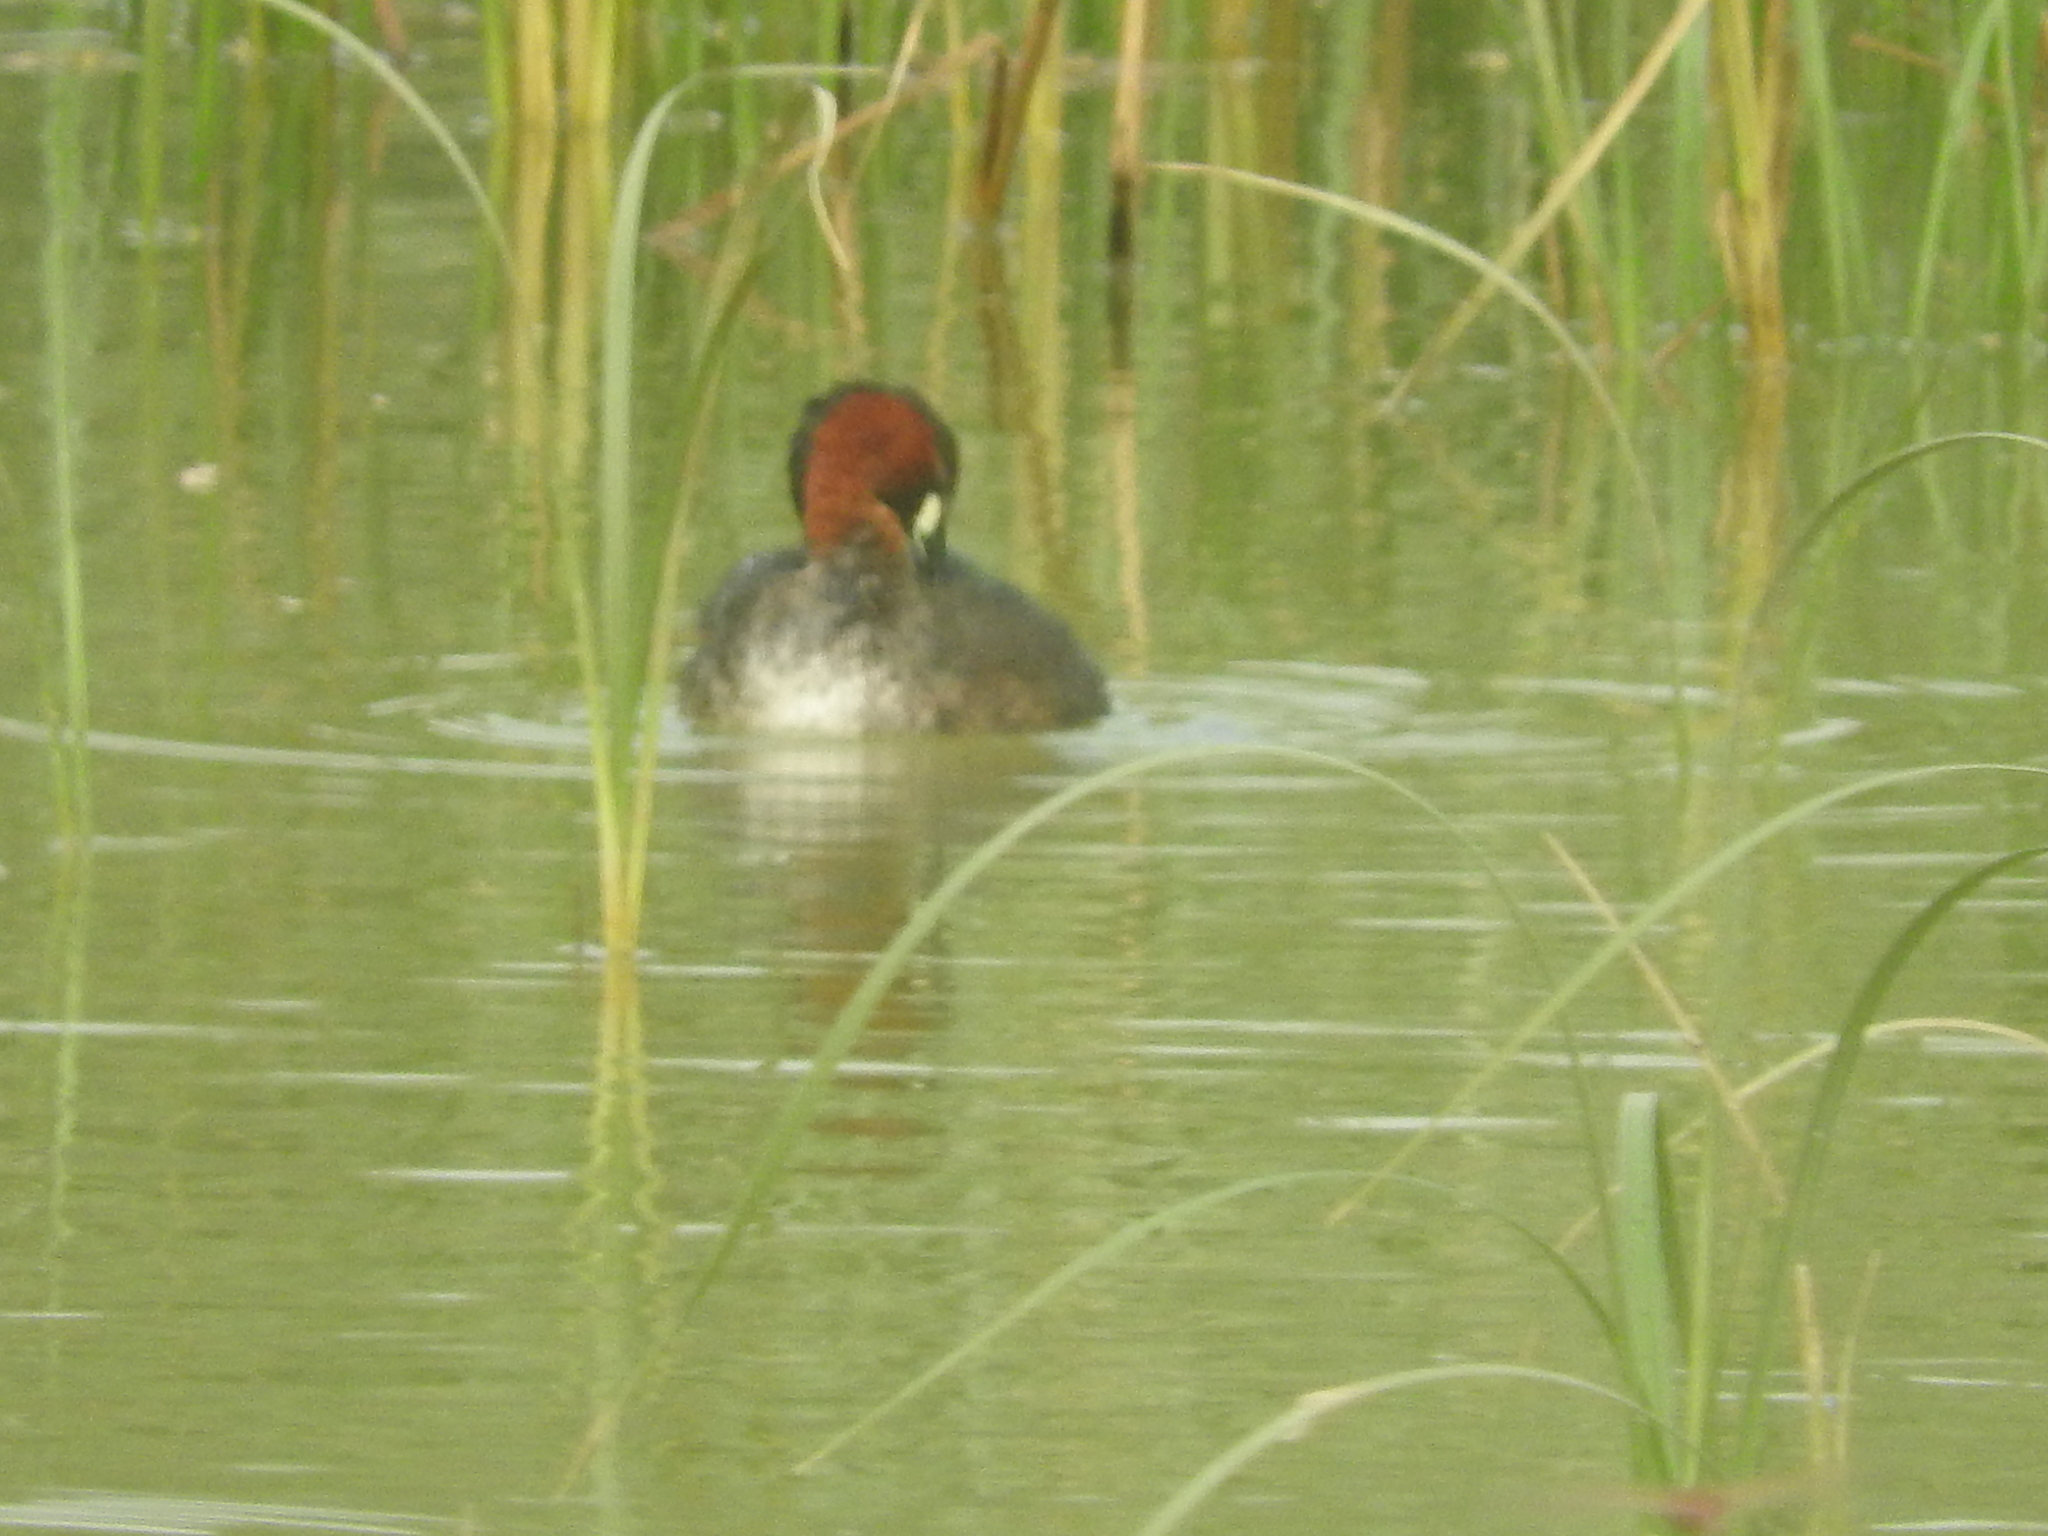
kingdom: Animalia
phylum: Chordata
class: Aves
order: Podicipediformes
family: Podicipedidae
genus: Tachybaptus
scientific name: Tachybaptus ruficollis
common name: Little grebe
